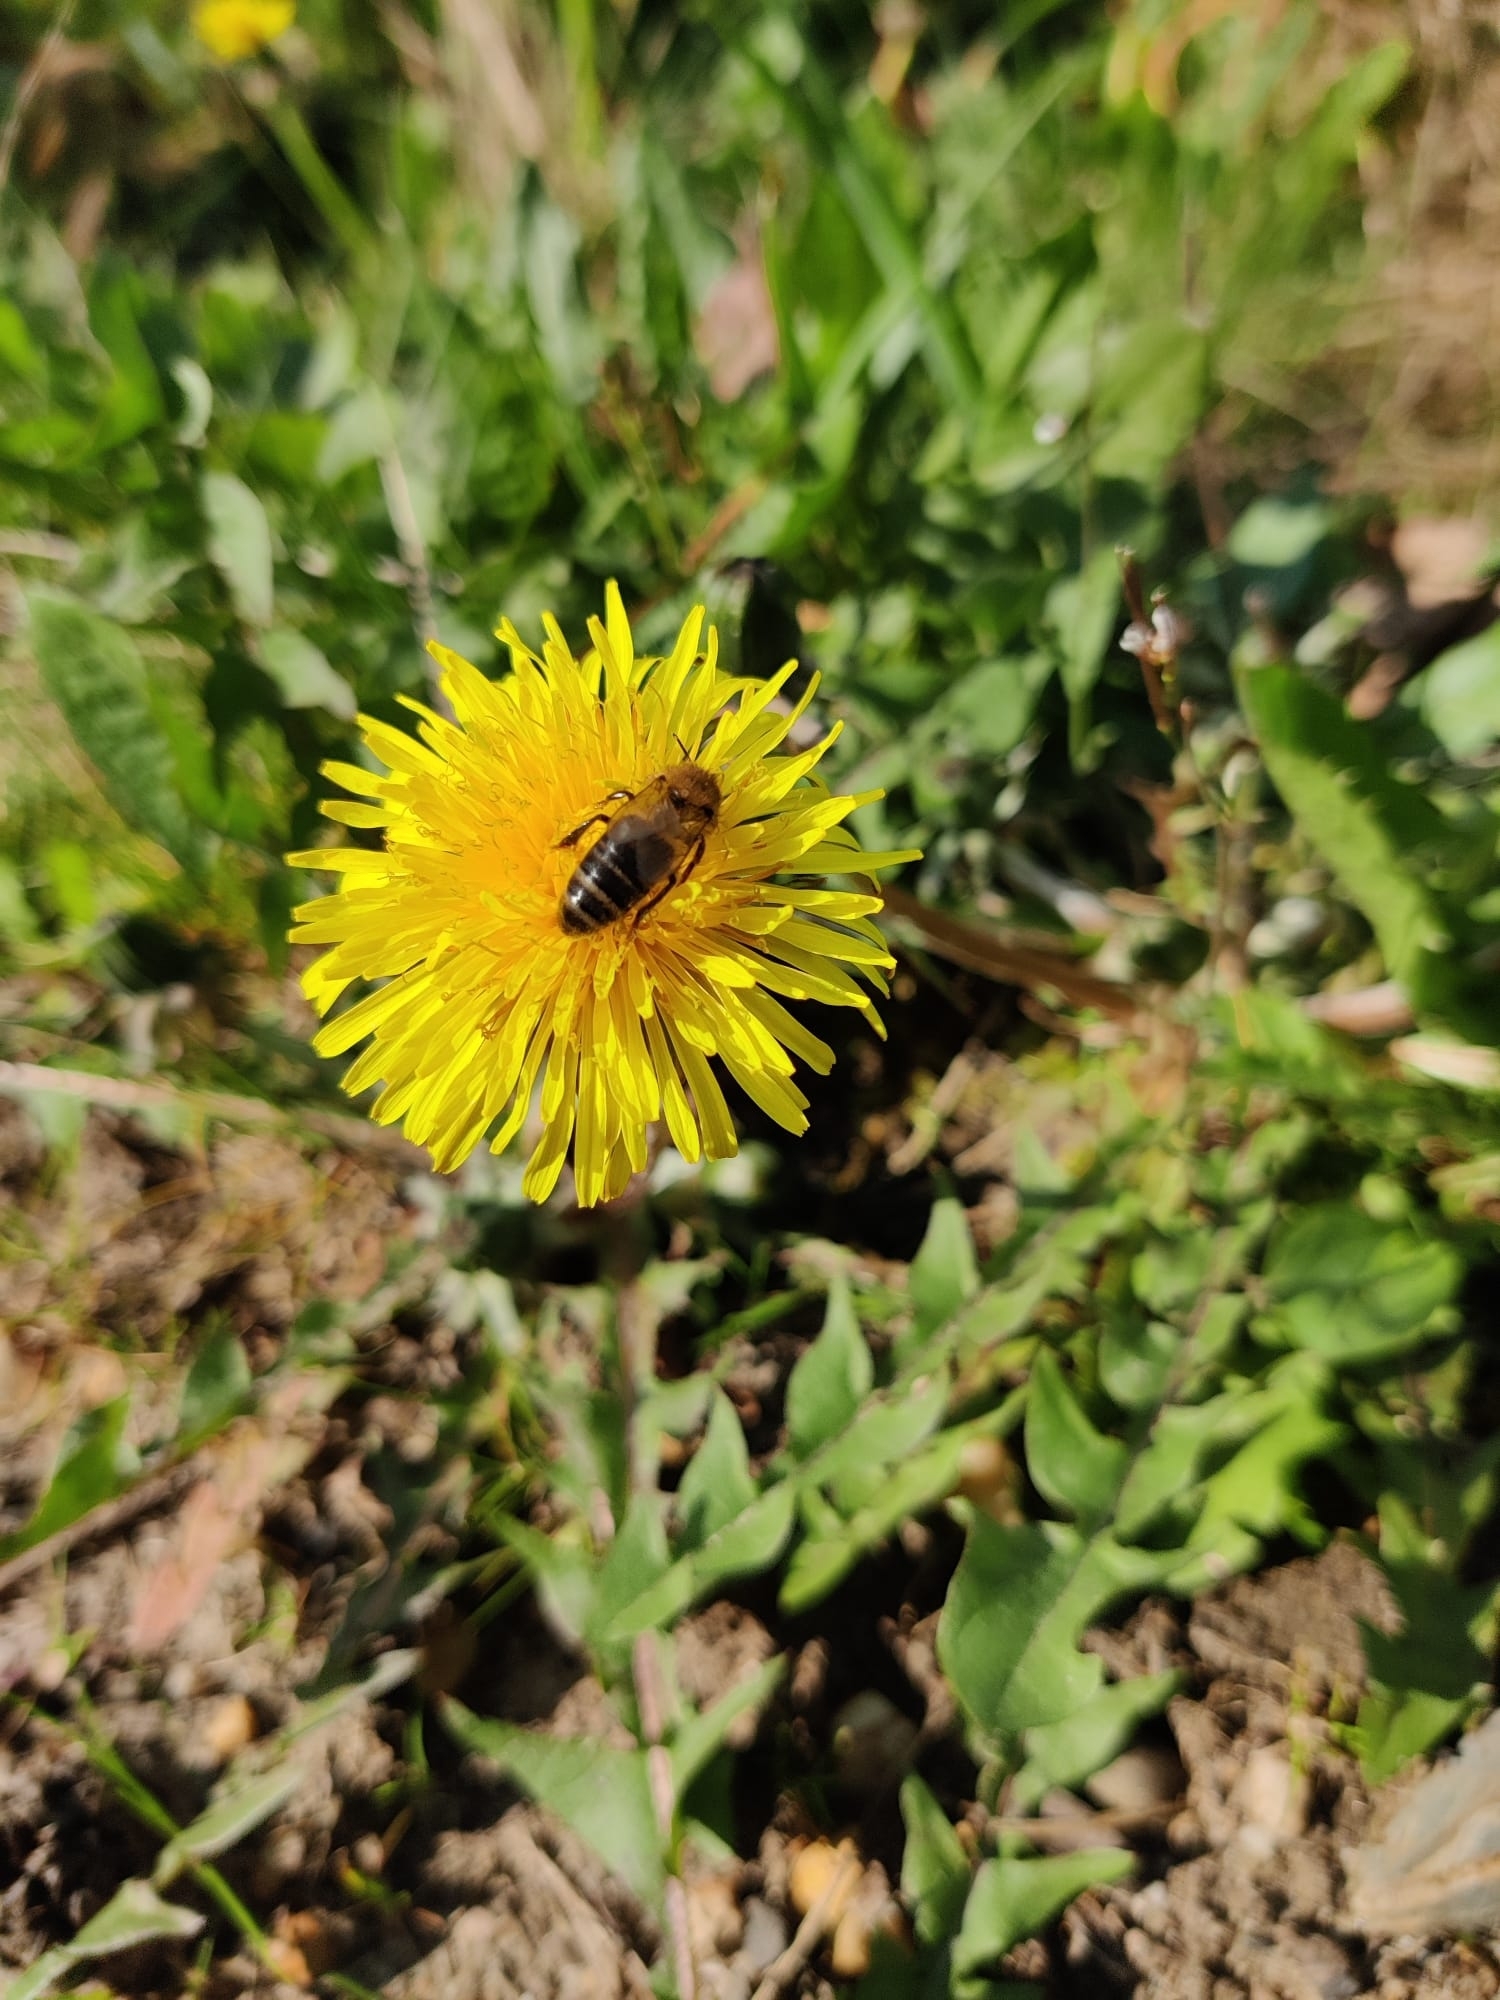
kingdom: Animalia
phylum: Arthropoda
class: Insecta
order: Hymenoptera
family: Apidae
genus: Apis
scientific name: Apis mellifera
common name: Honey bee
